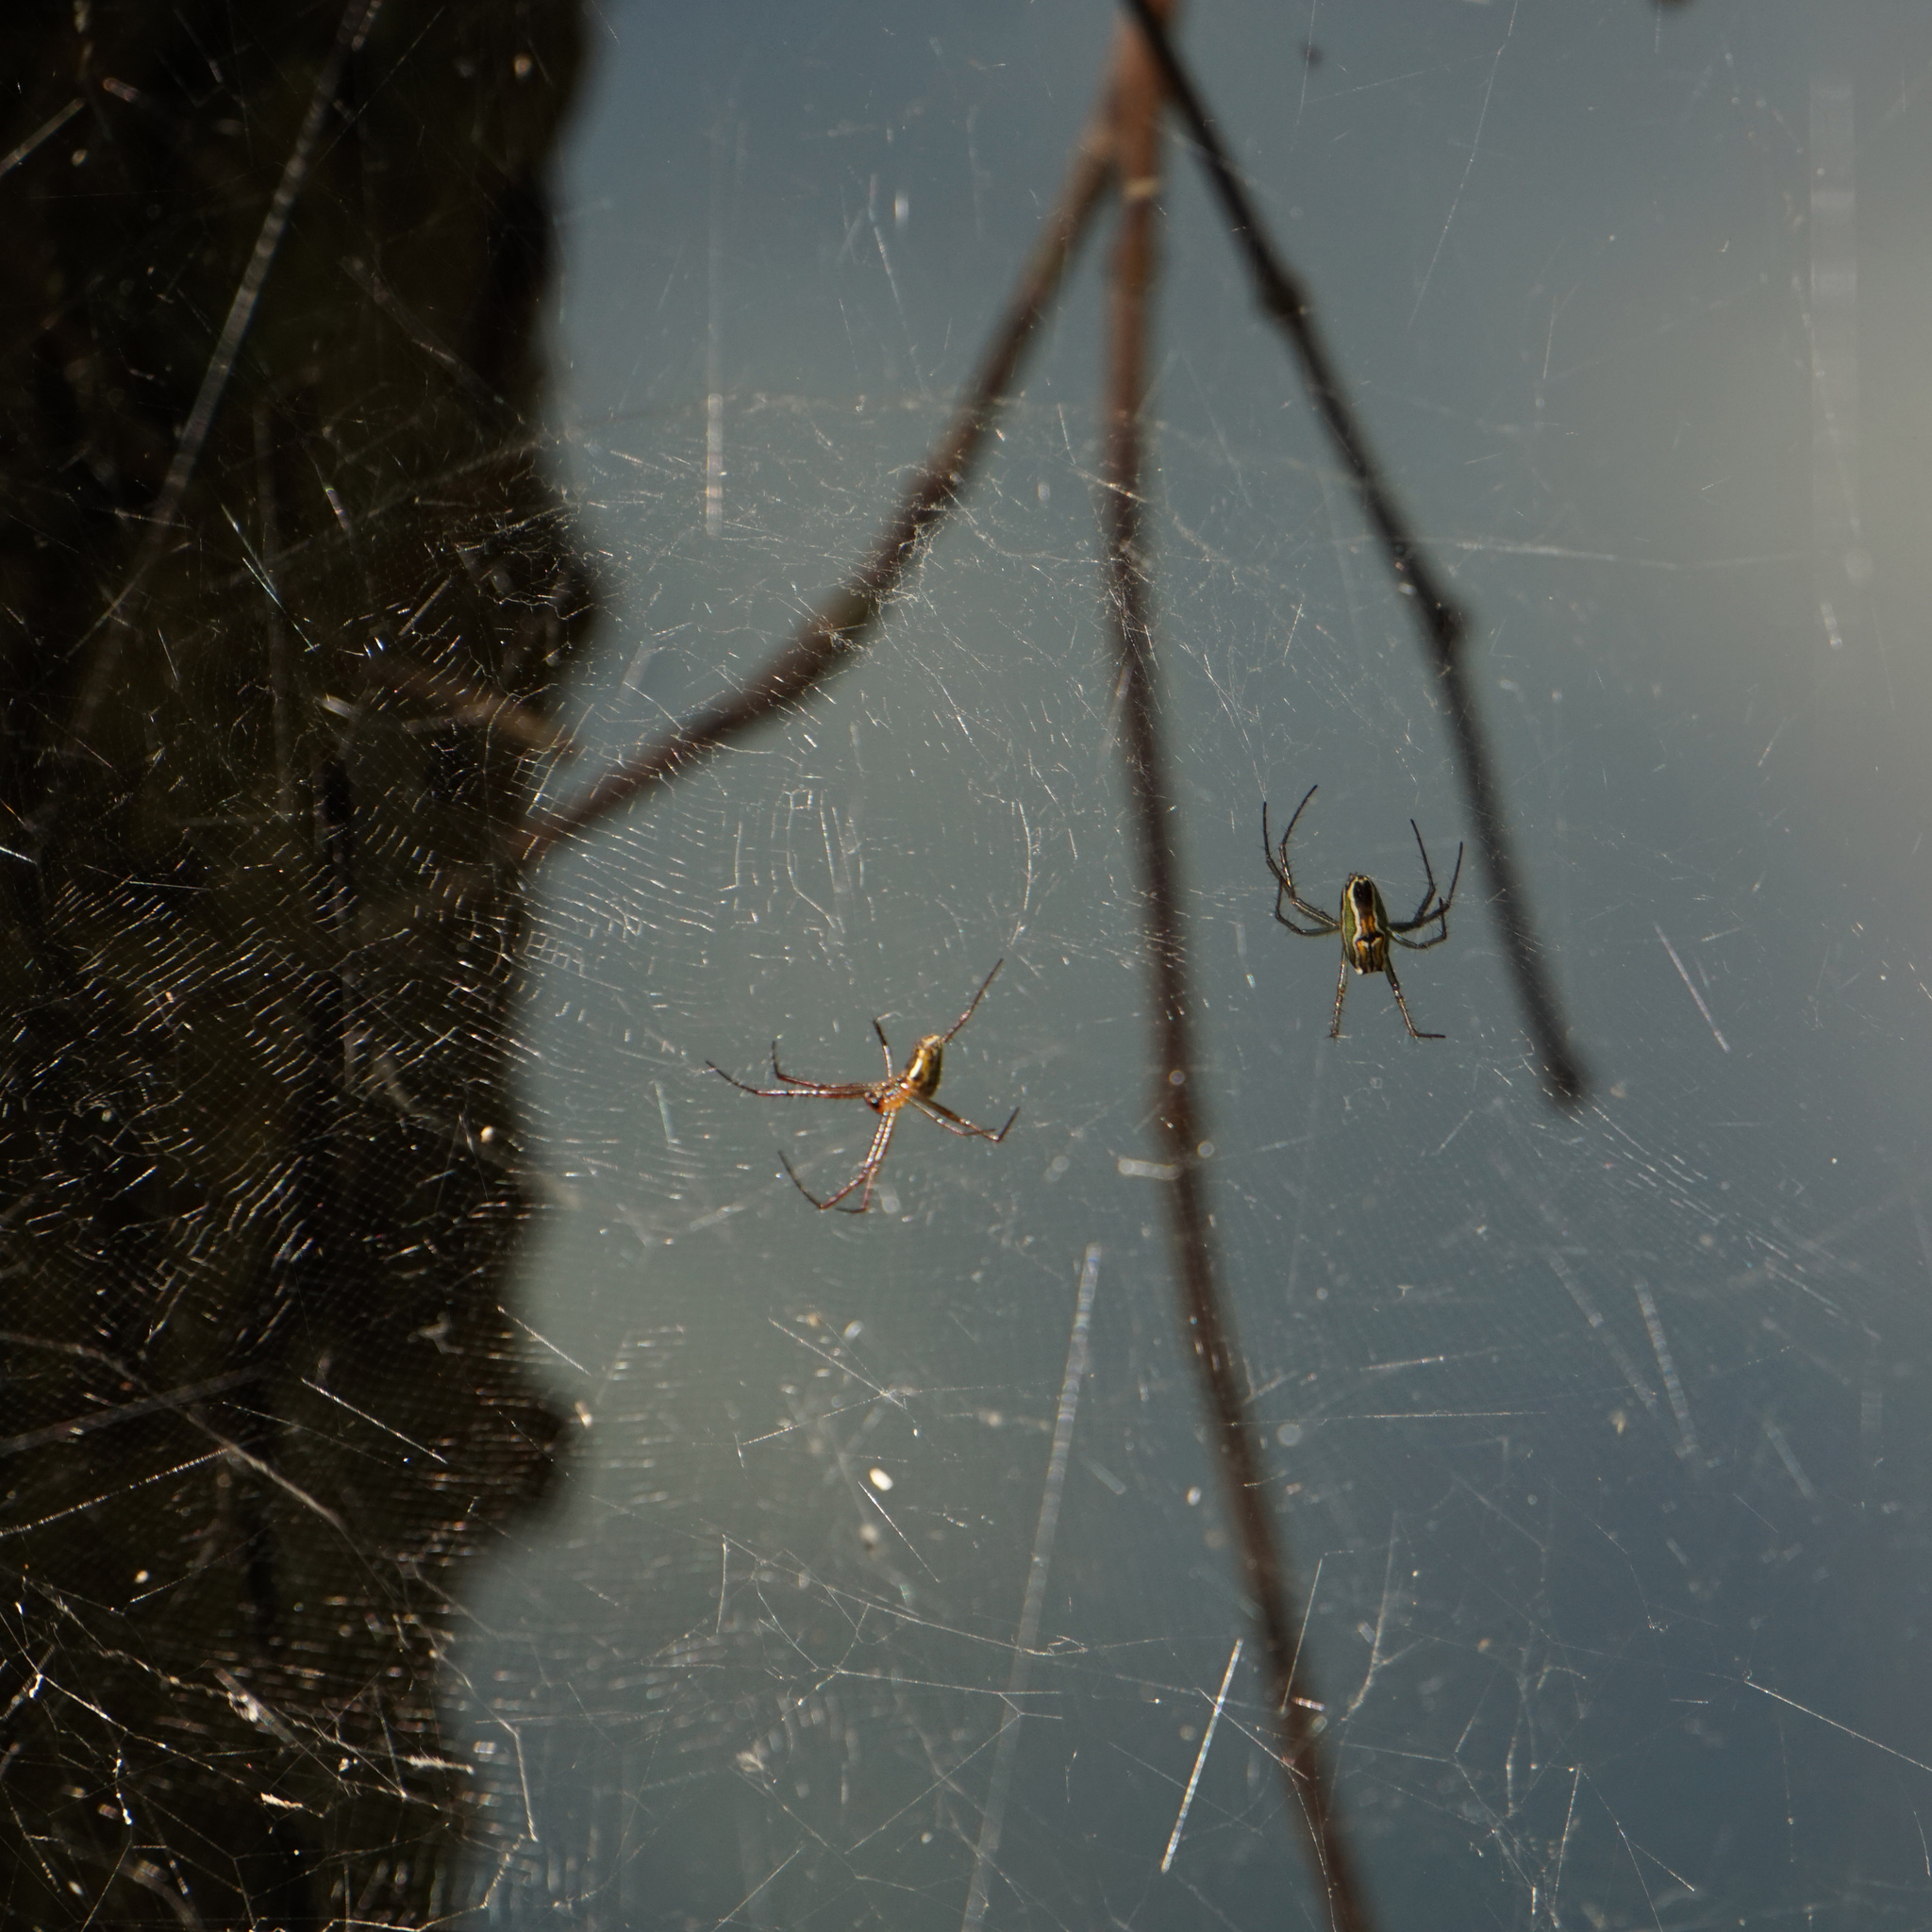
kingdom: Animalia
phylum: Arthropoda
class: Arachnida
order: Araneae
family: Araneidae
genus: Mecynogea
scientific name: Mecynogea lemniscata
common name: Orb weavers
